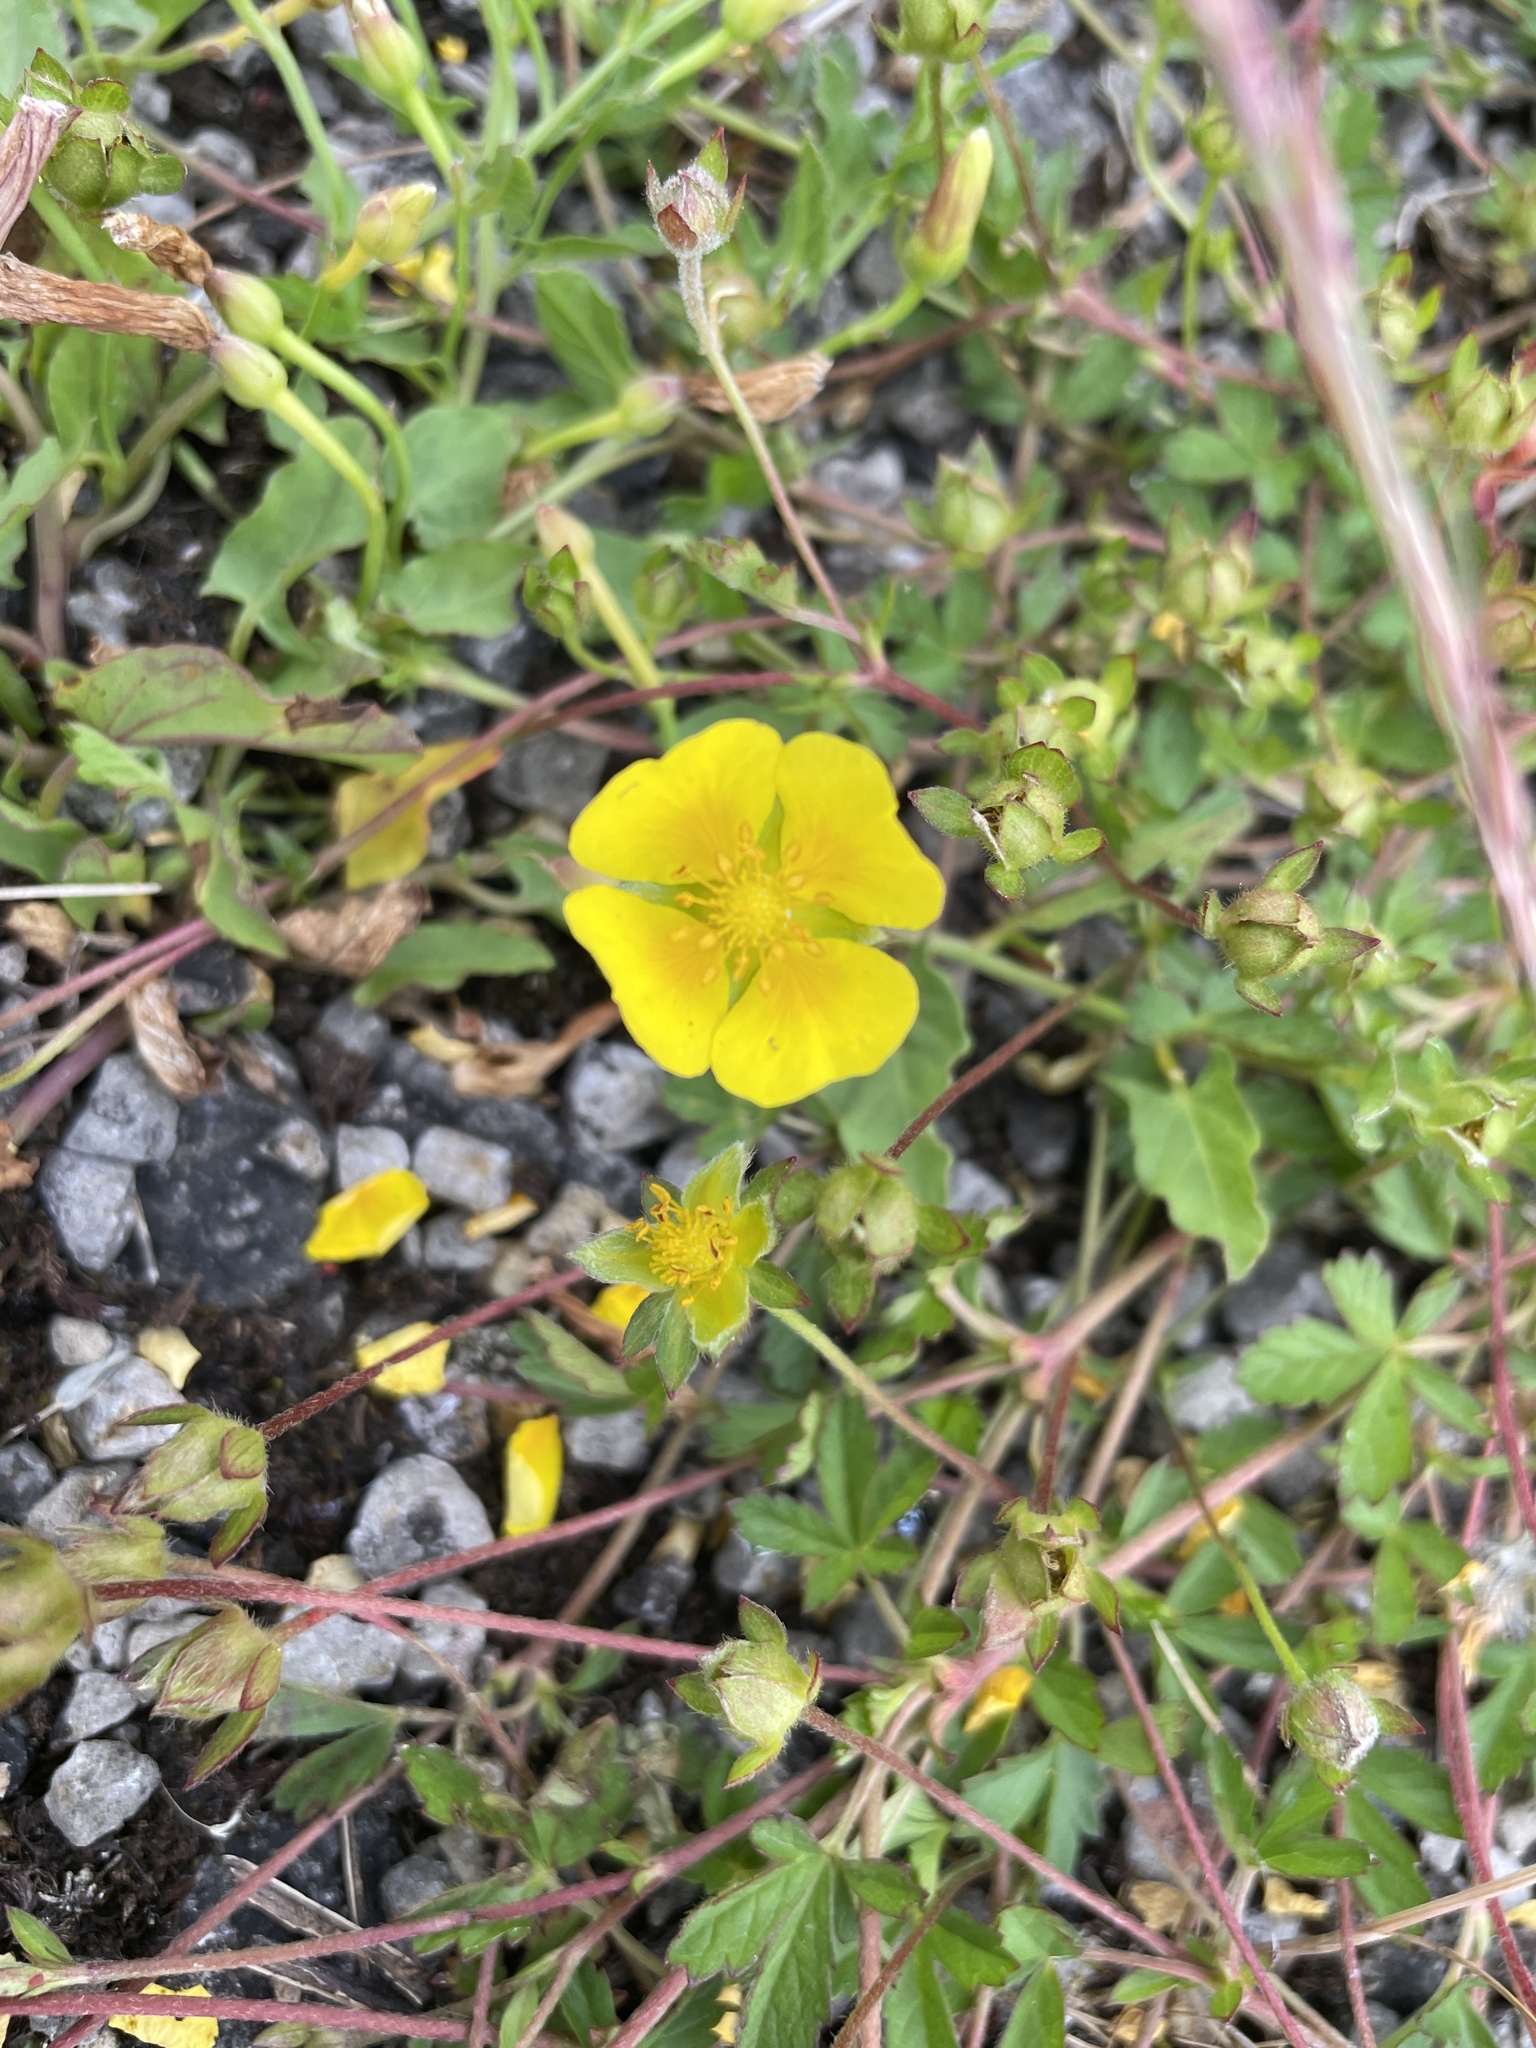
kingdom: Plantae
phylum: Tracheophyta
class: Magnoliopsida
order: Rosales
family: Rosaceae
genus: Potentilla
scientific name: Potentilla anglica
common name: Trailing tormentil
